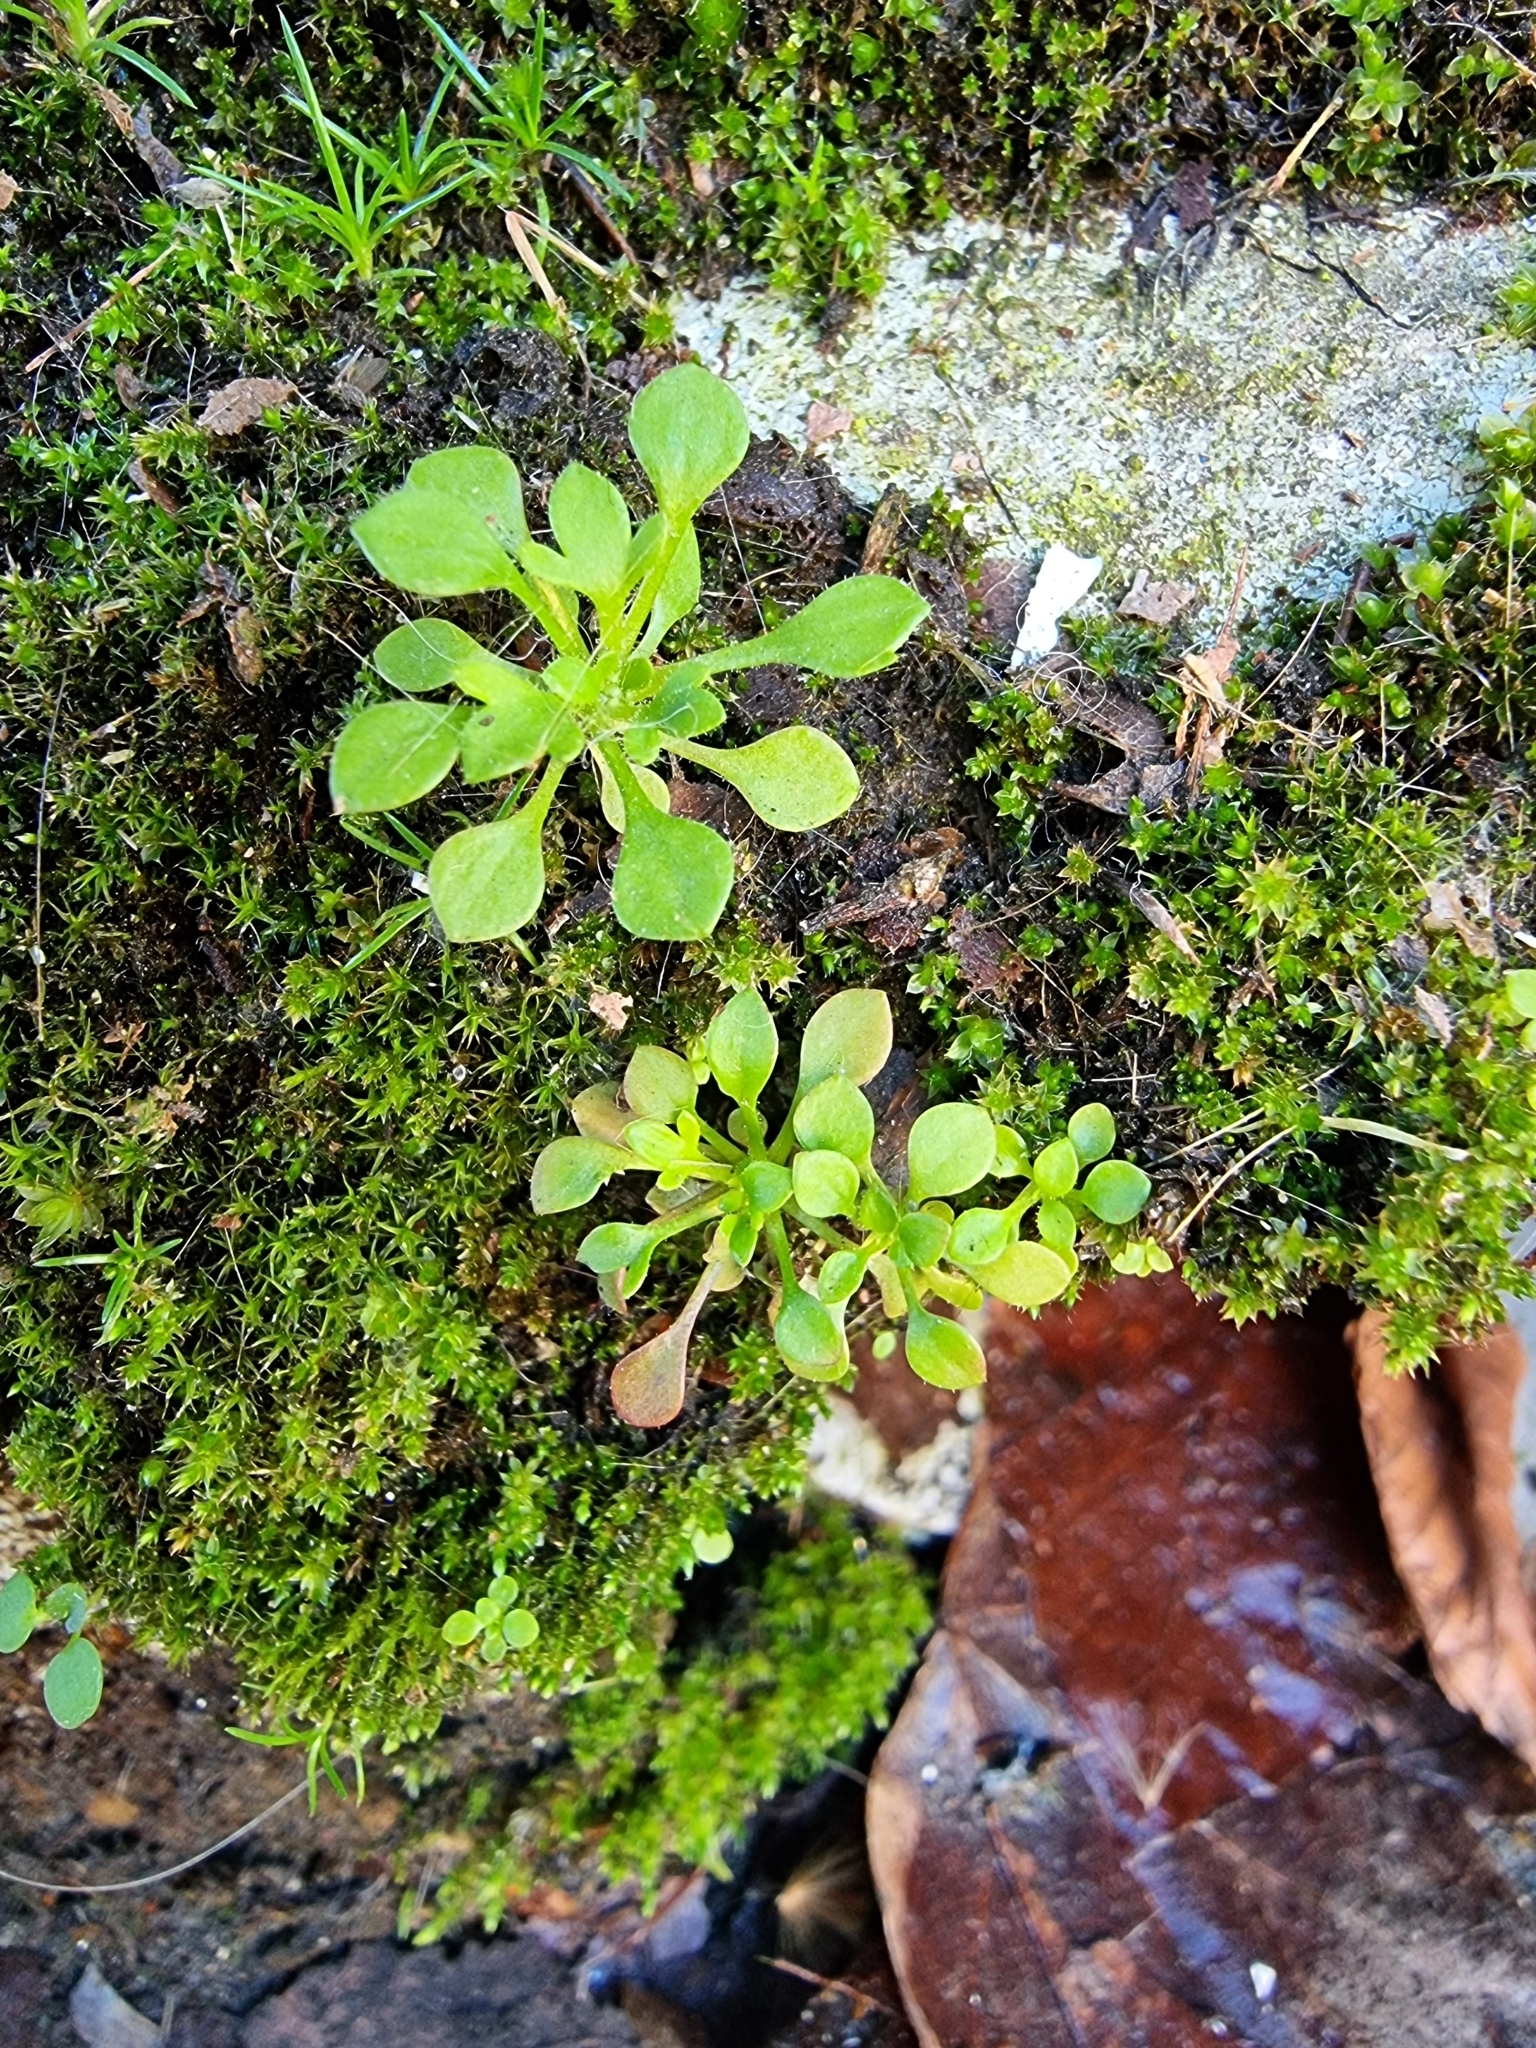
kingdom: Plantae
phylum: Tracheophyta
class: Magnoliopsida
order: Saxifragales
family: Saxifragaceae
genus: Saxifraga
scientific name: Saxifraga tridactylites
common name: Rue-leaved saxifrage
